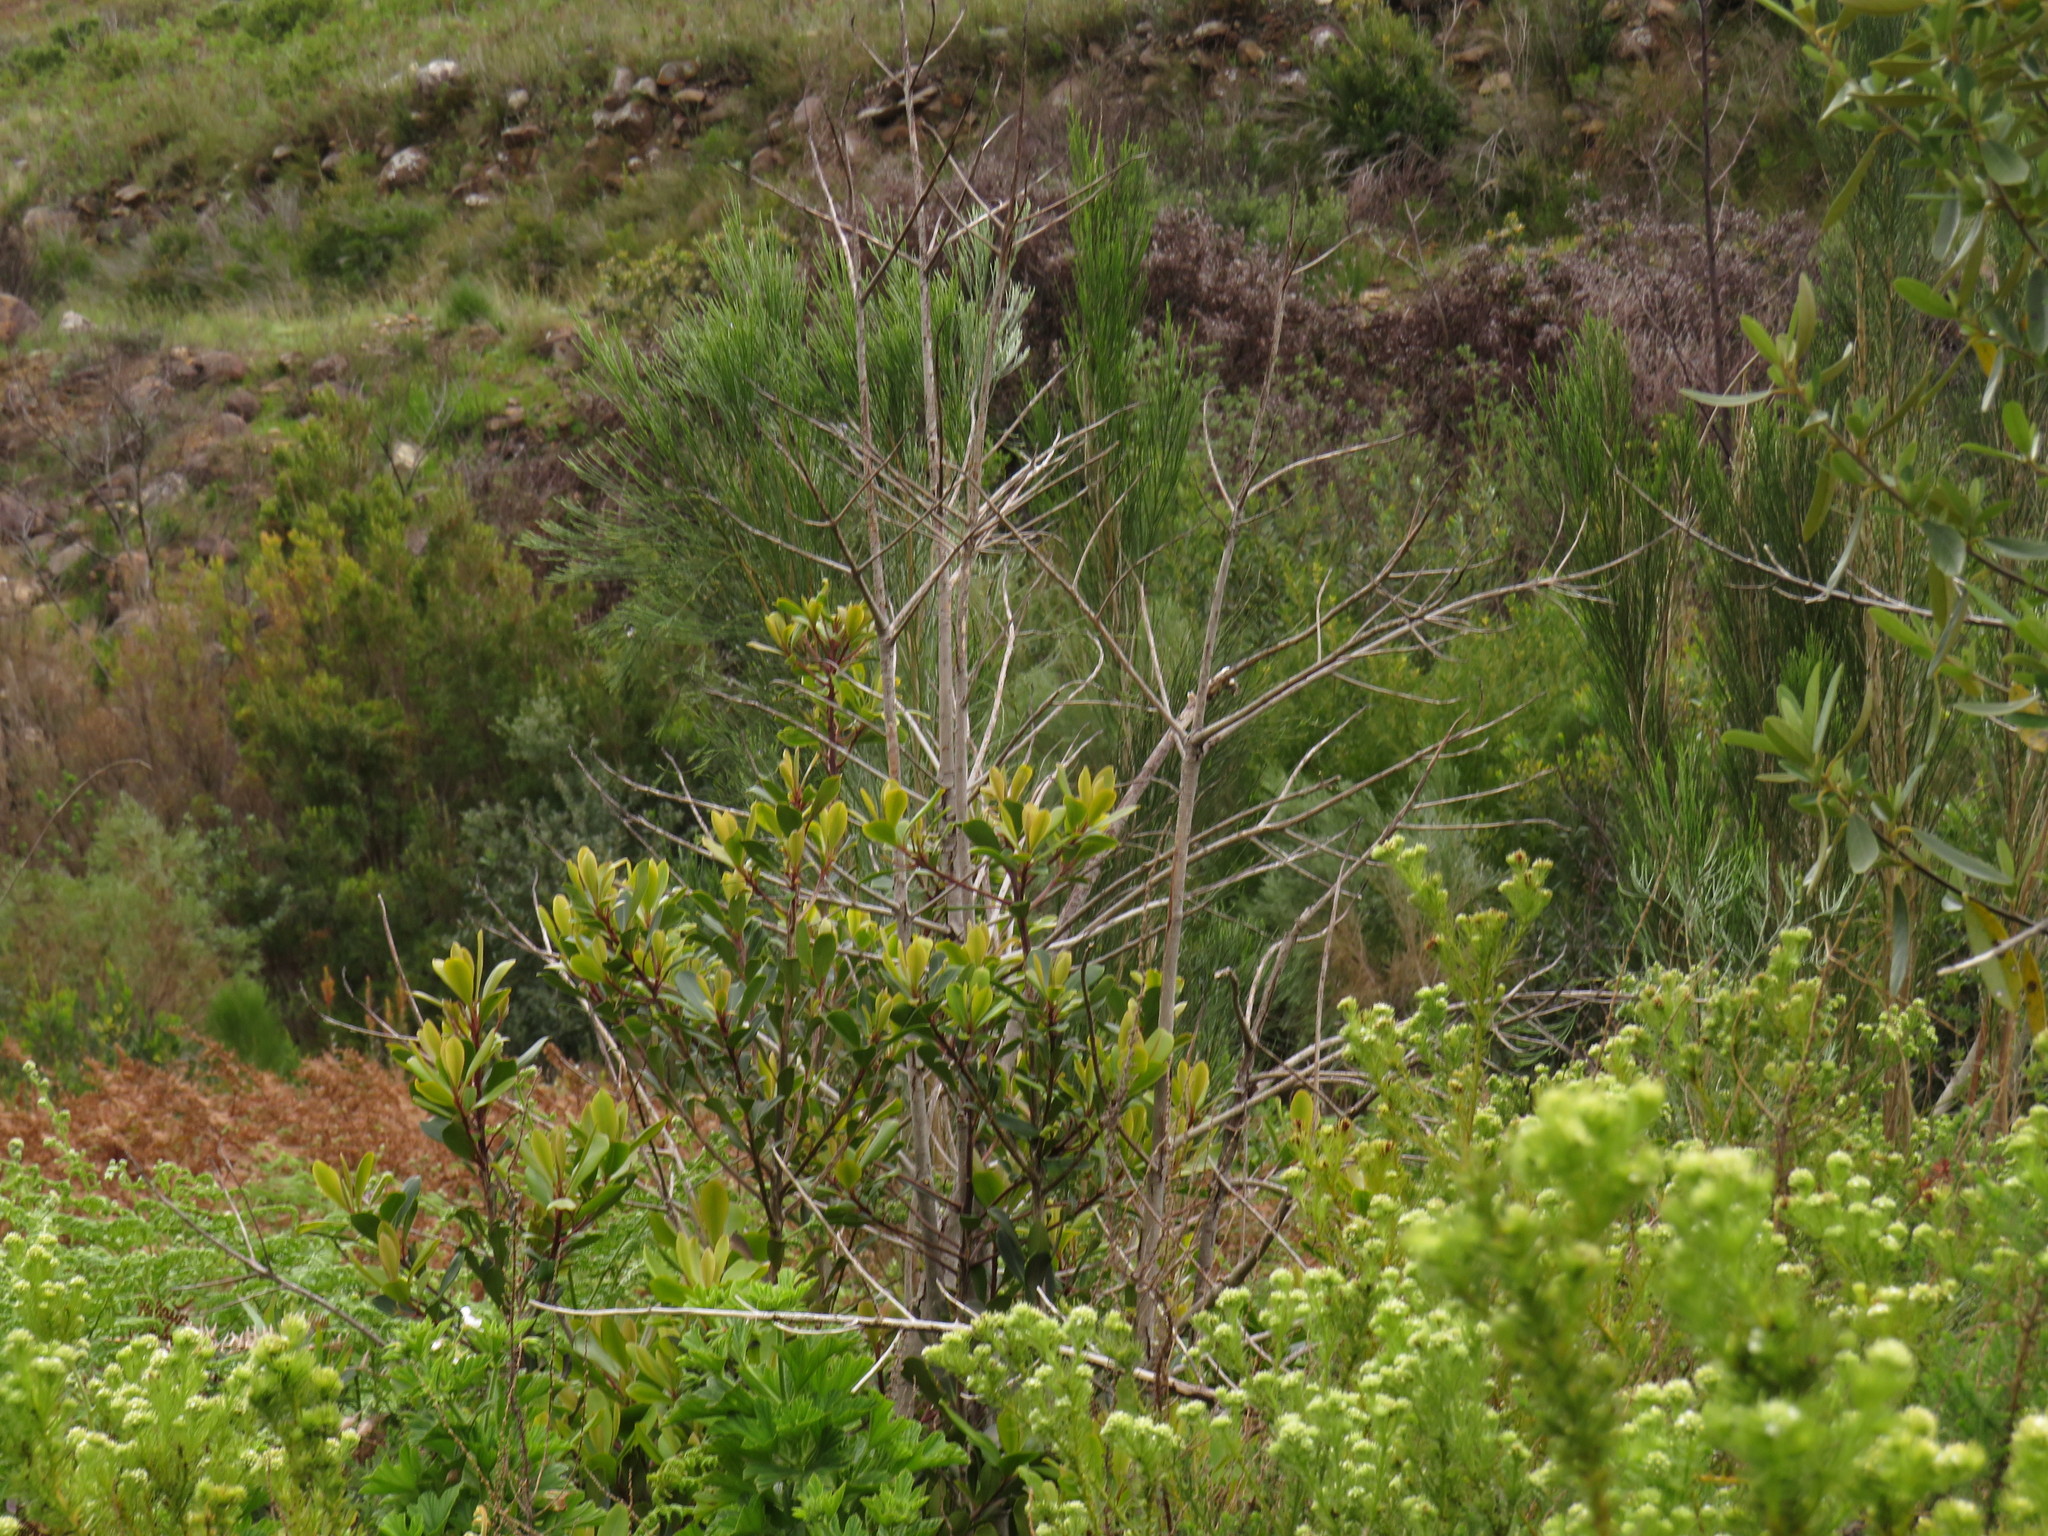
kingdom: Plantae
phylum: Tracheophyta
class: Magnoliopsida
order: Ericales
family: Primulaceae
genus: Myrsine
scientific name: Myrsine melanophloeos
